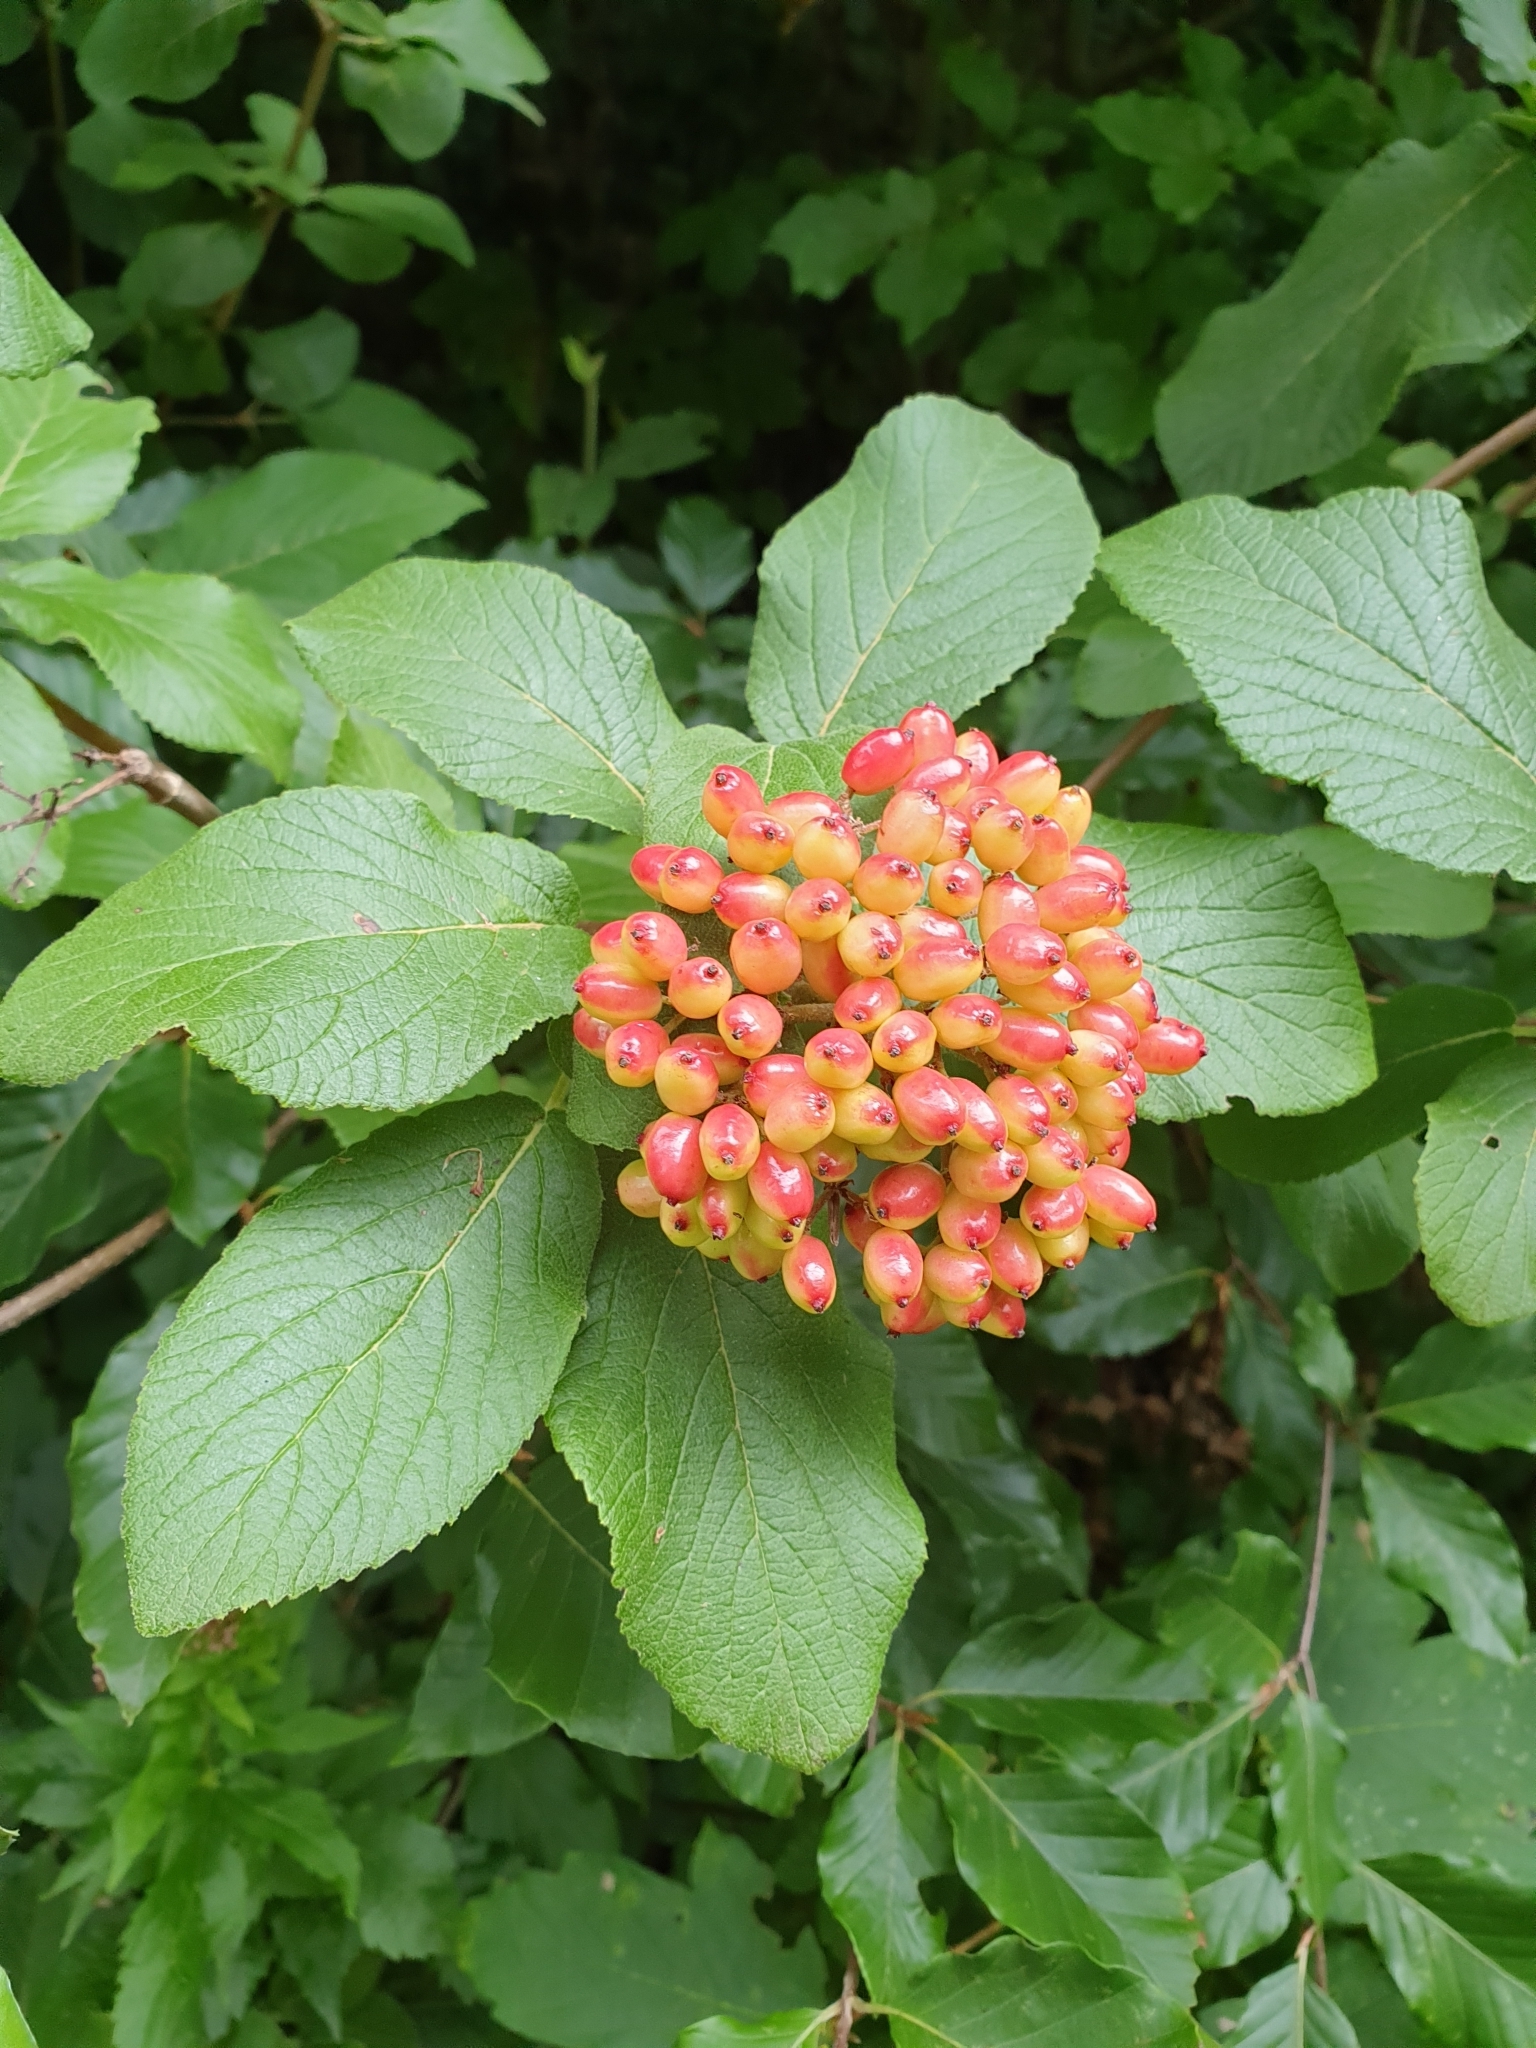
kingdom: Plantae
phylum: Tracheophyta
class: Magnoliopsida
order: Dipsacales
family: Viburnaceae
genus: Viburnum
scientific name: Viburnum lantana
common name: Wayfaring tree
